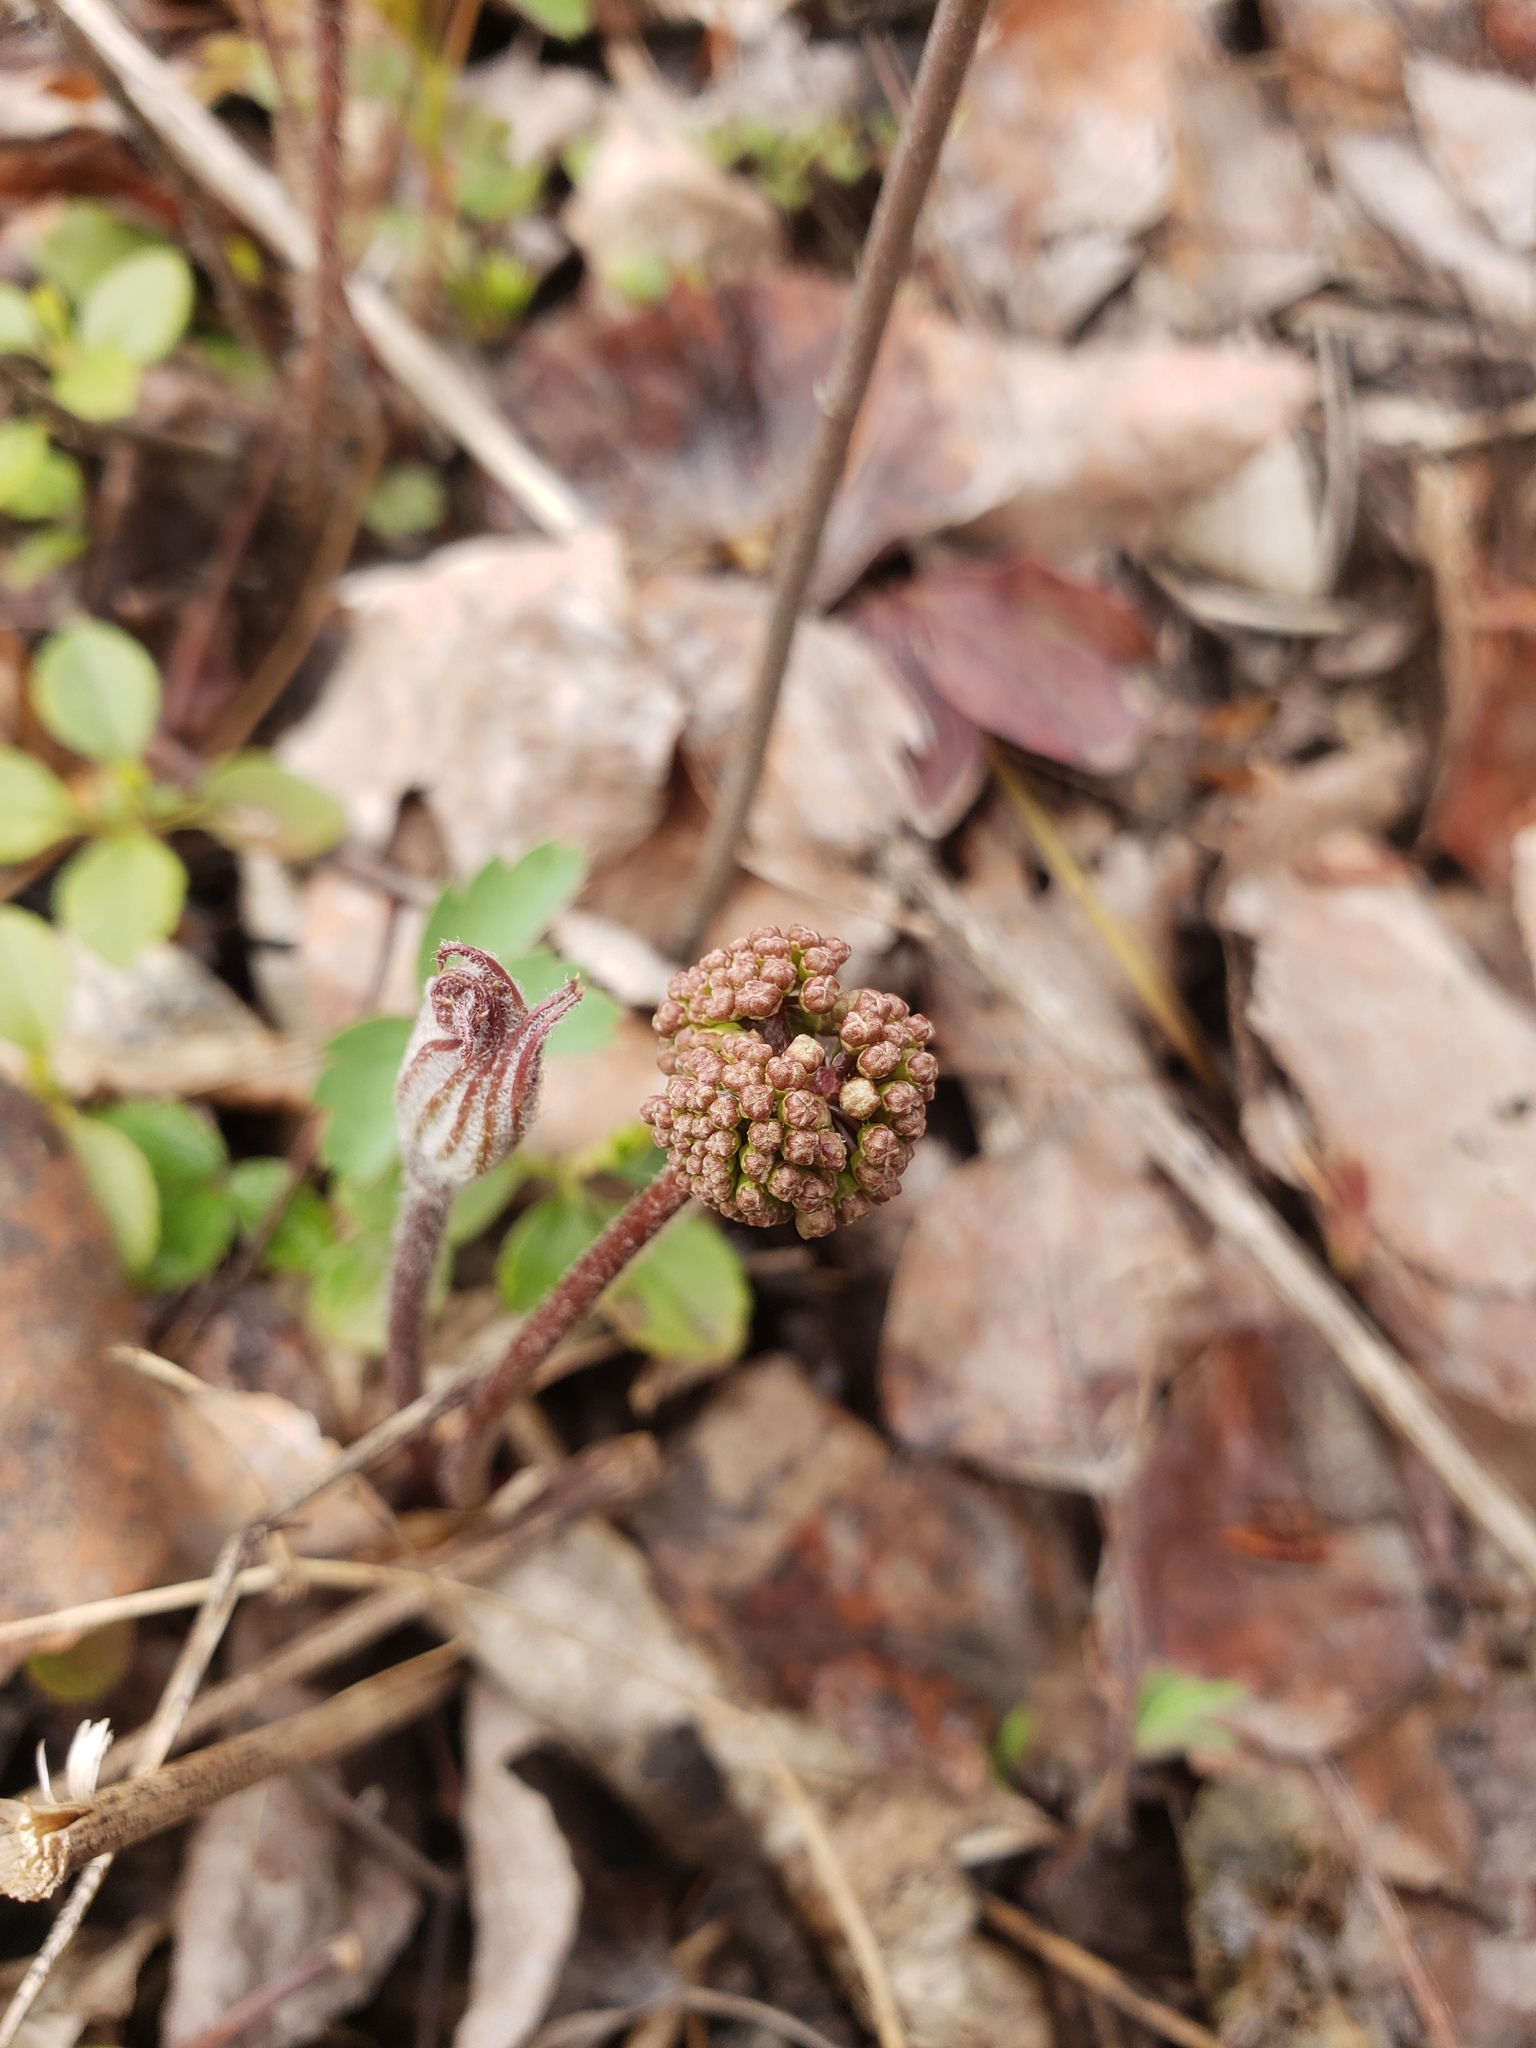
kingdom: Plantae
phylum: Tracheophyta
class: Magnoliopsida
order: Apiales
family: Araliaceae
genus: Aralia
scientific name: Aralia nudicaulis
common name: Wild sarsaparilla
